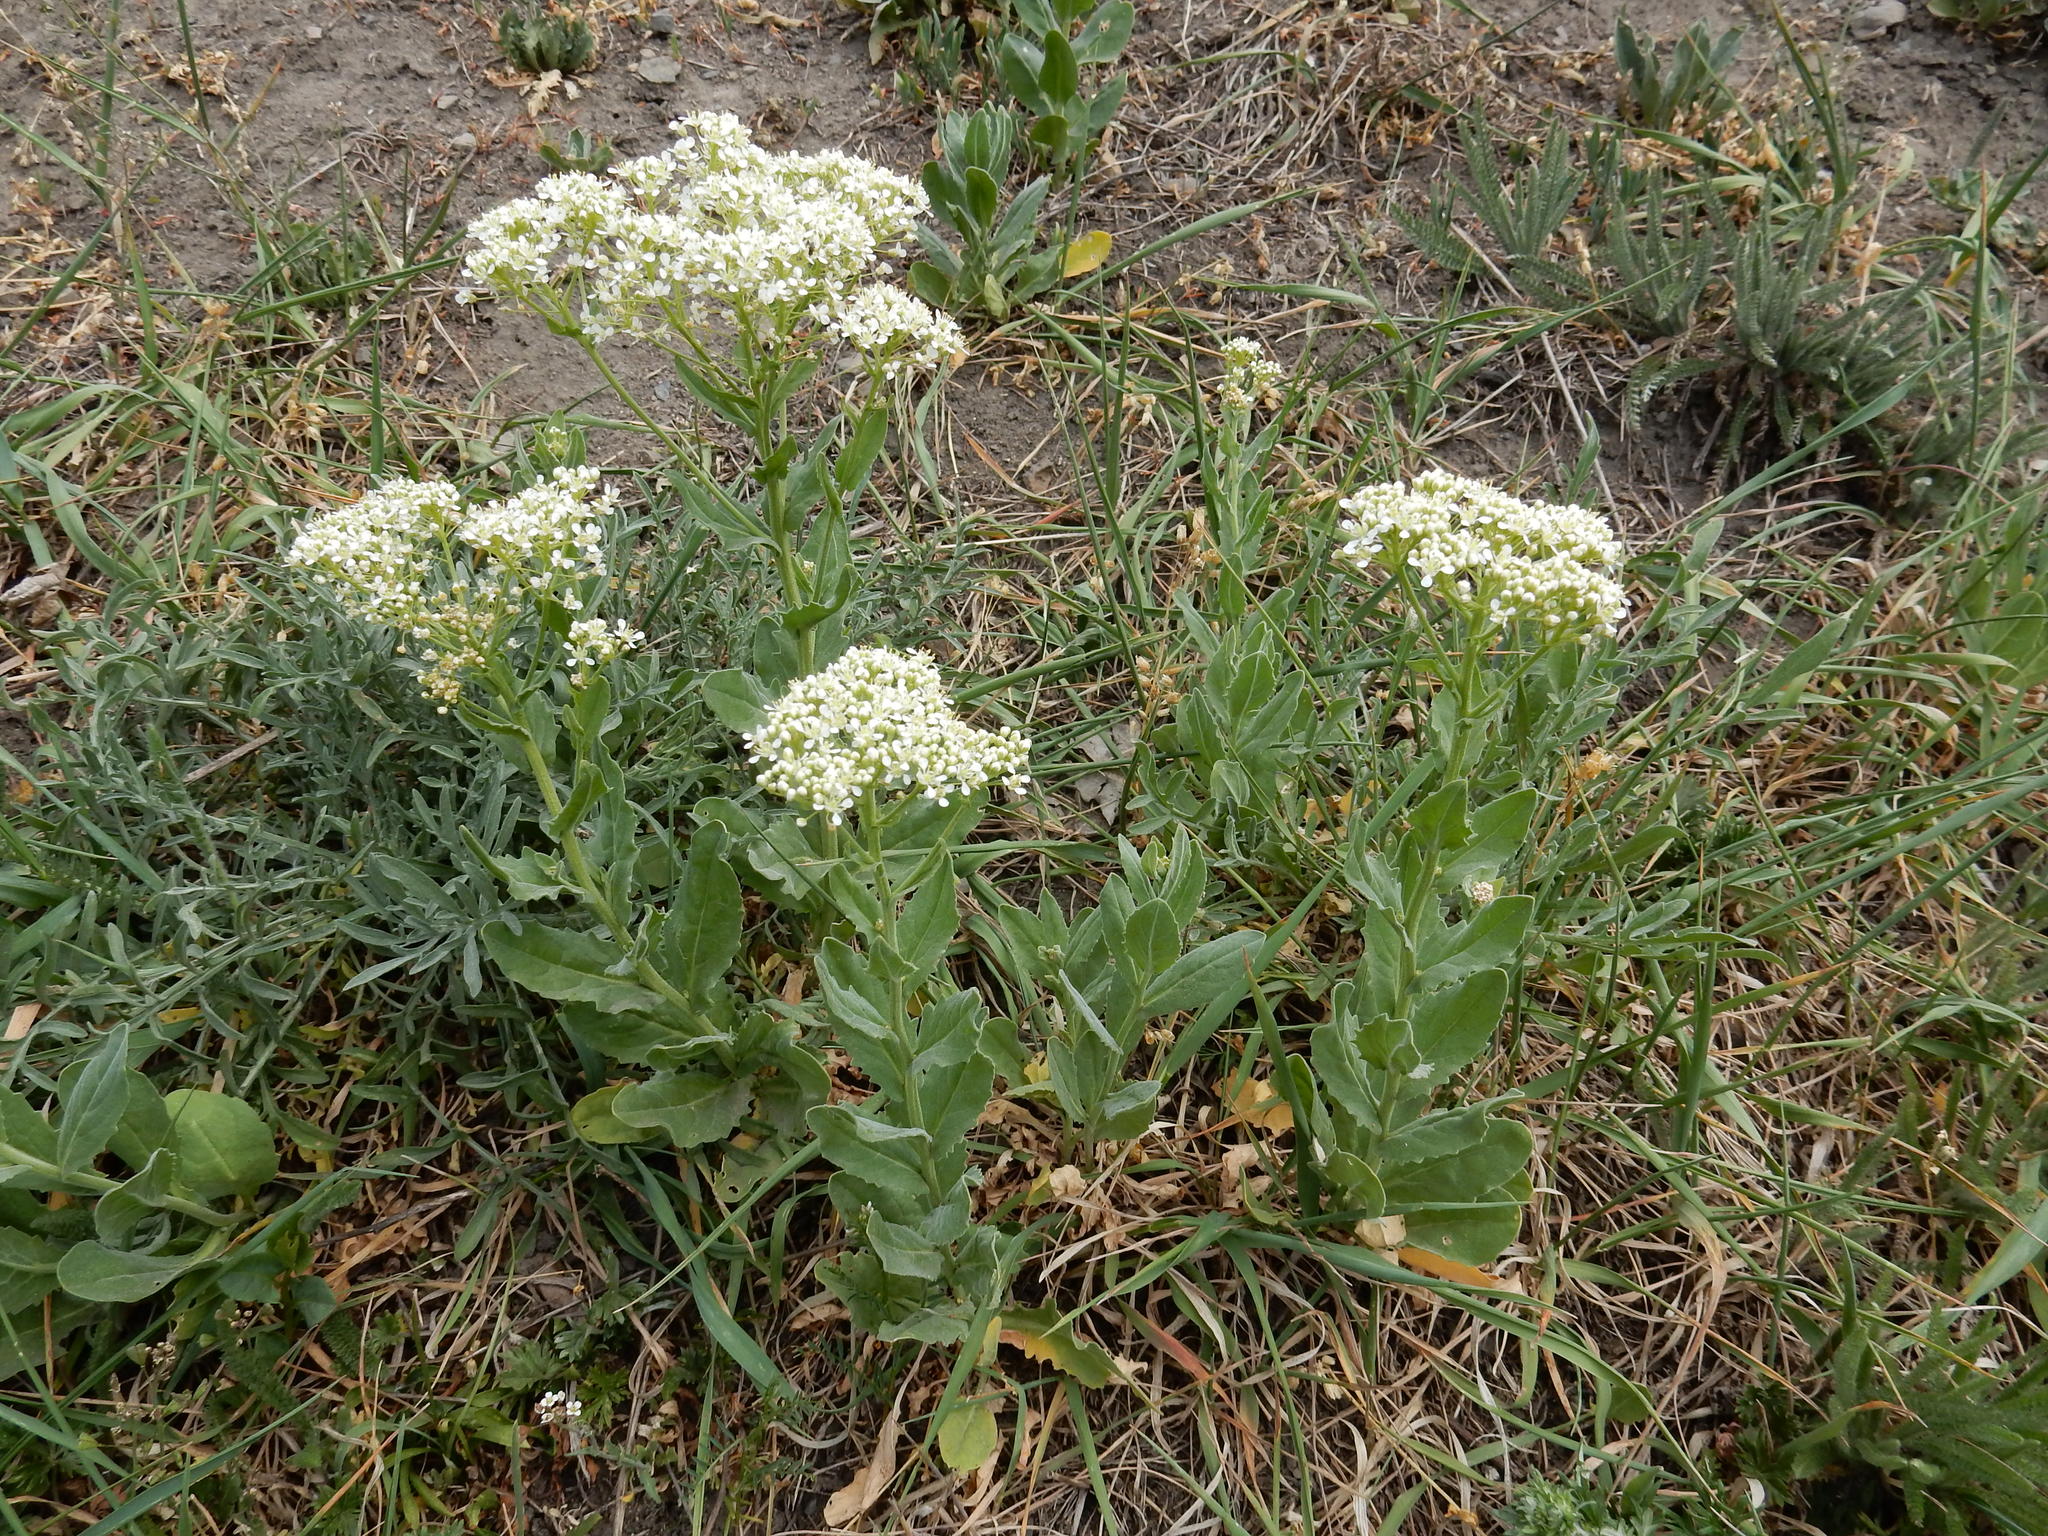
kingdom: Plantae
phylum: Tracheophyta
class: Magnoliopsida
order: Brassicales
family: Brassicaceae
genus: Lepidium
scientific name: Lepidium draba
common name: Hoary cress
